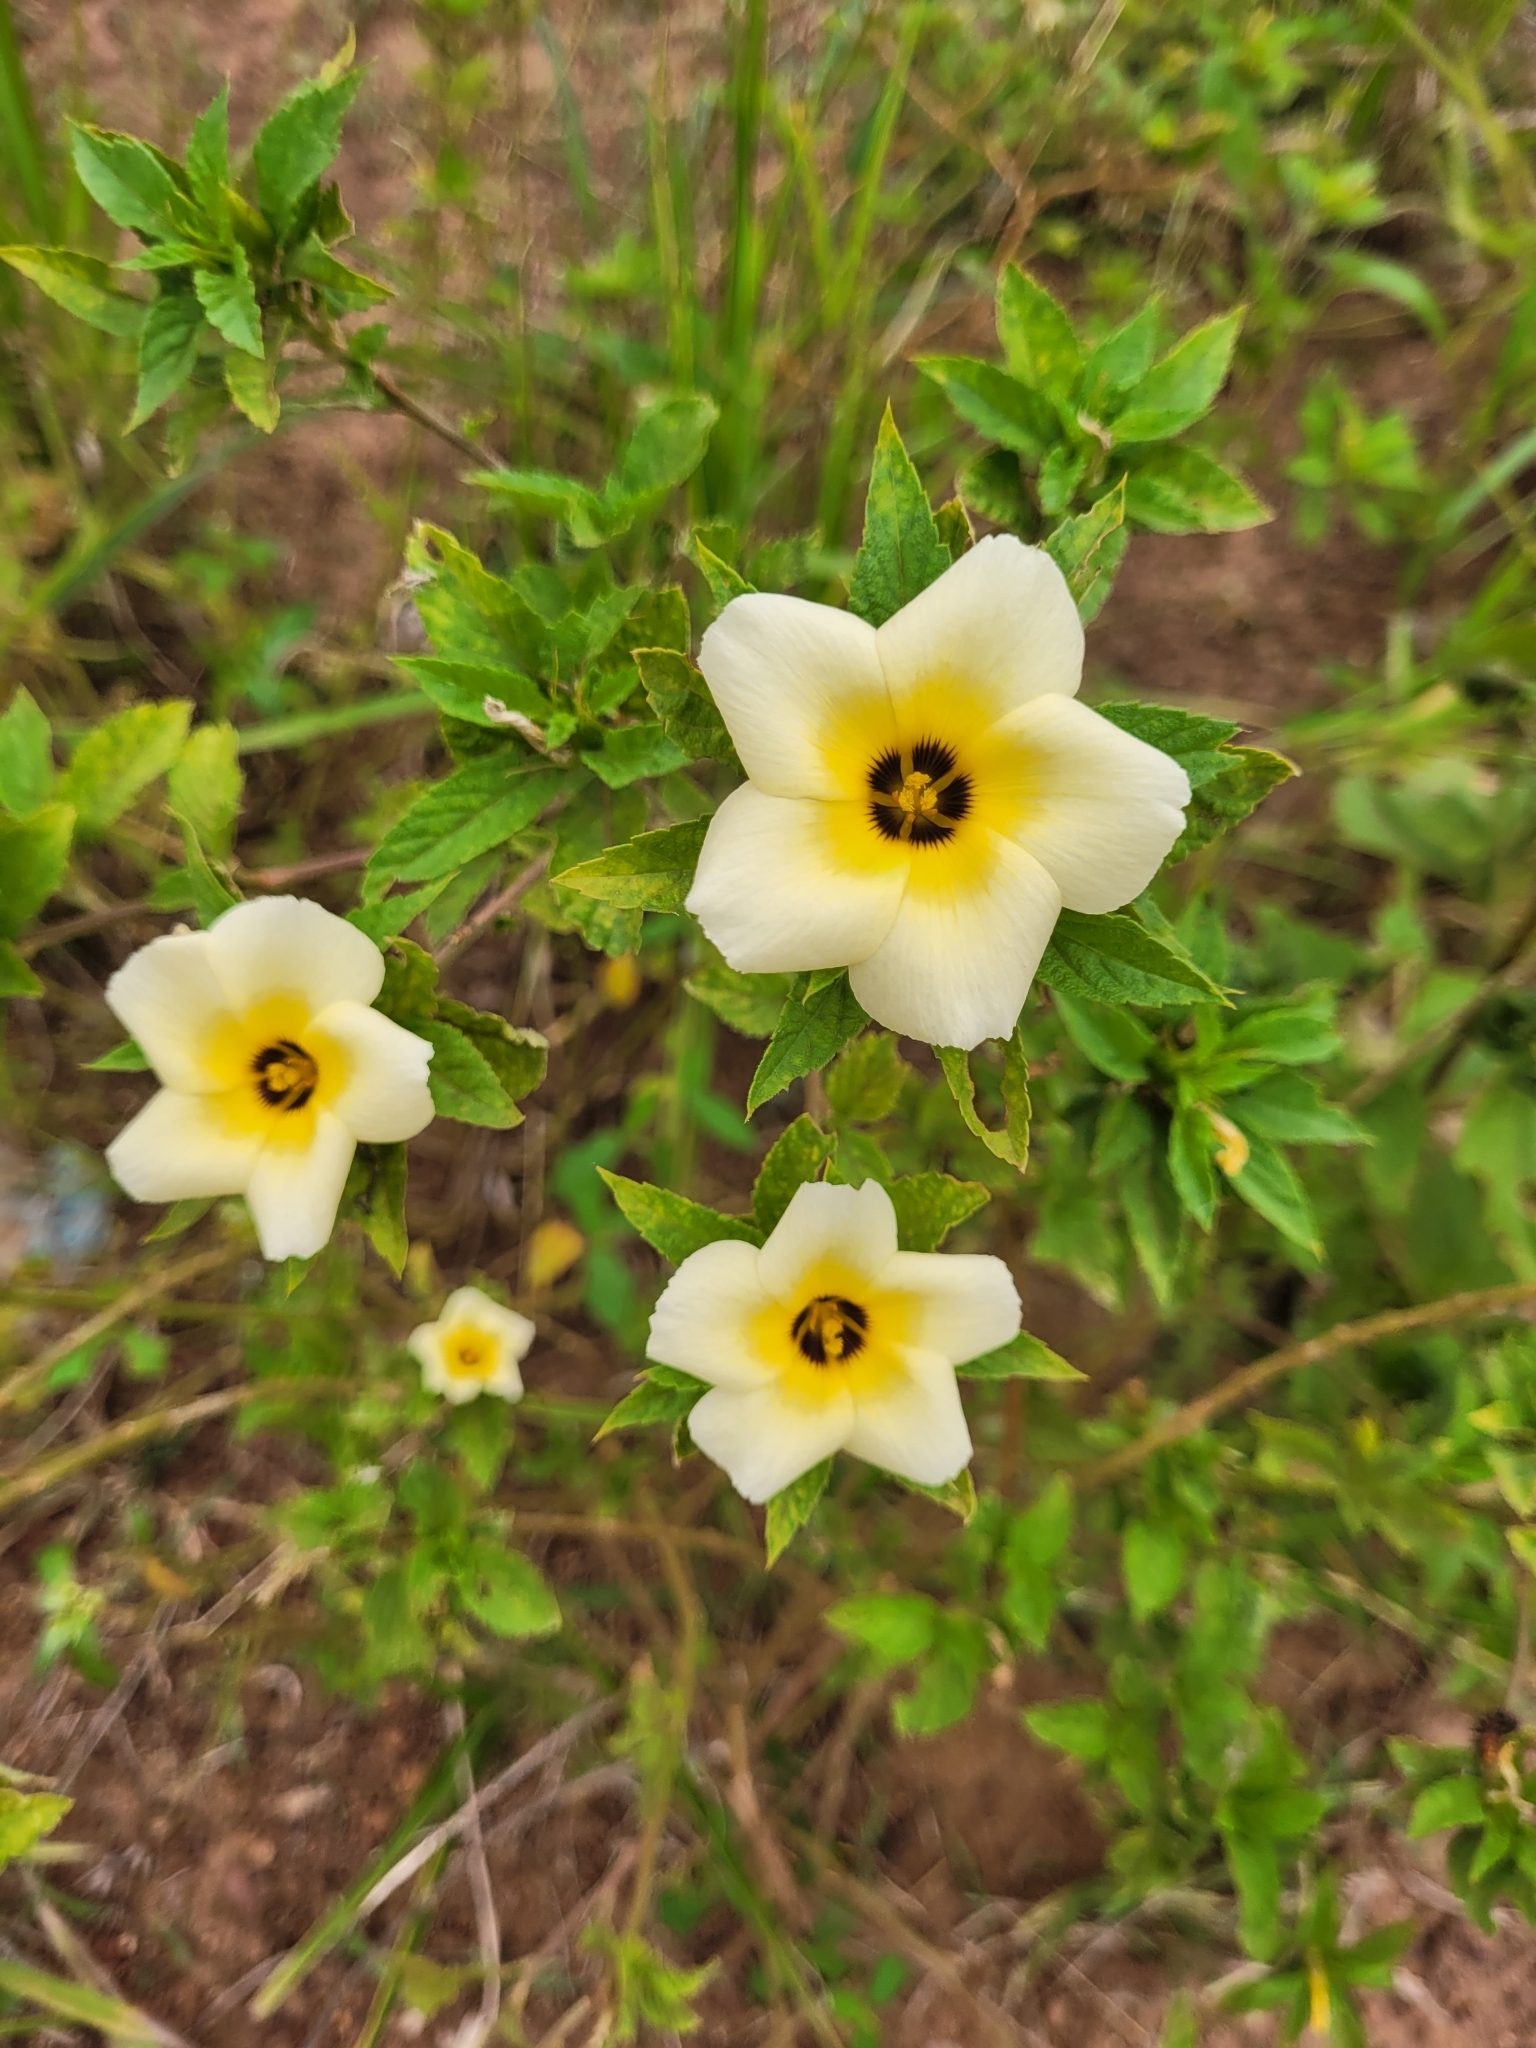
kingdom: Plantae
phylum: Tracheophyta
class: Magnoliopsida
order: Malpighiales
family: Turneraceae
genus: Turnera
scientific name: Turnera subulata
